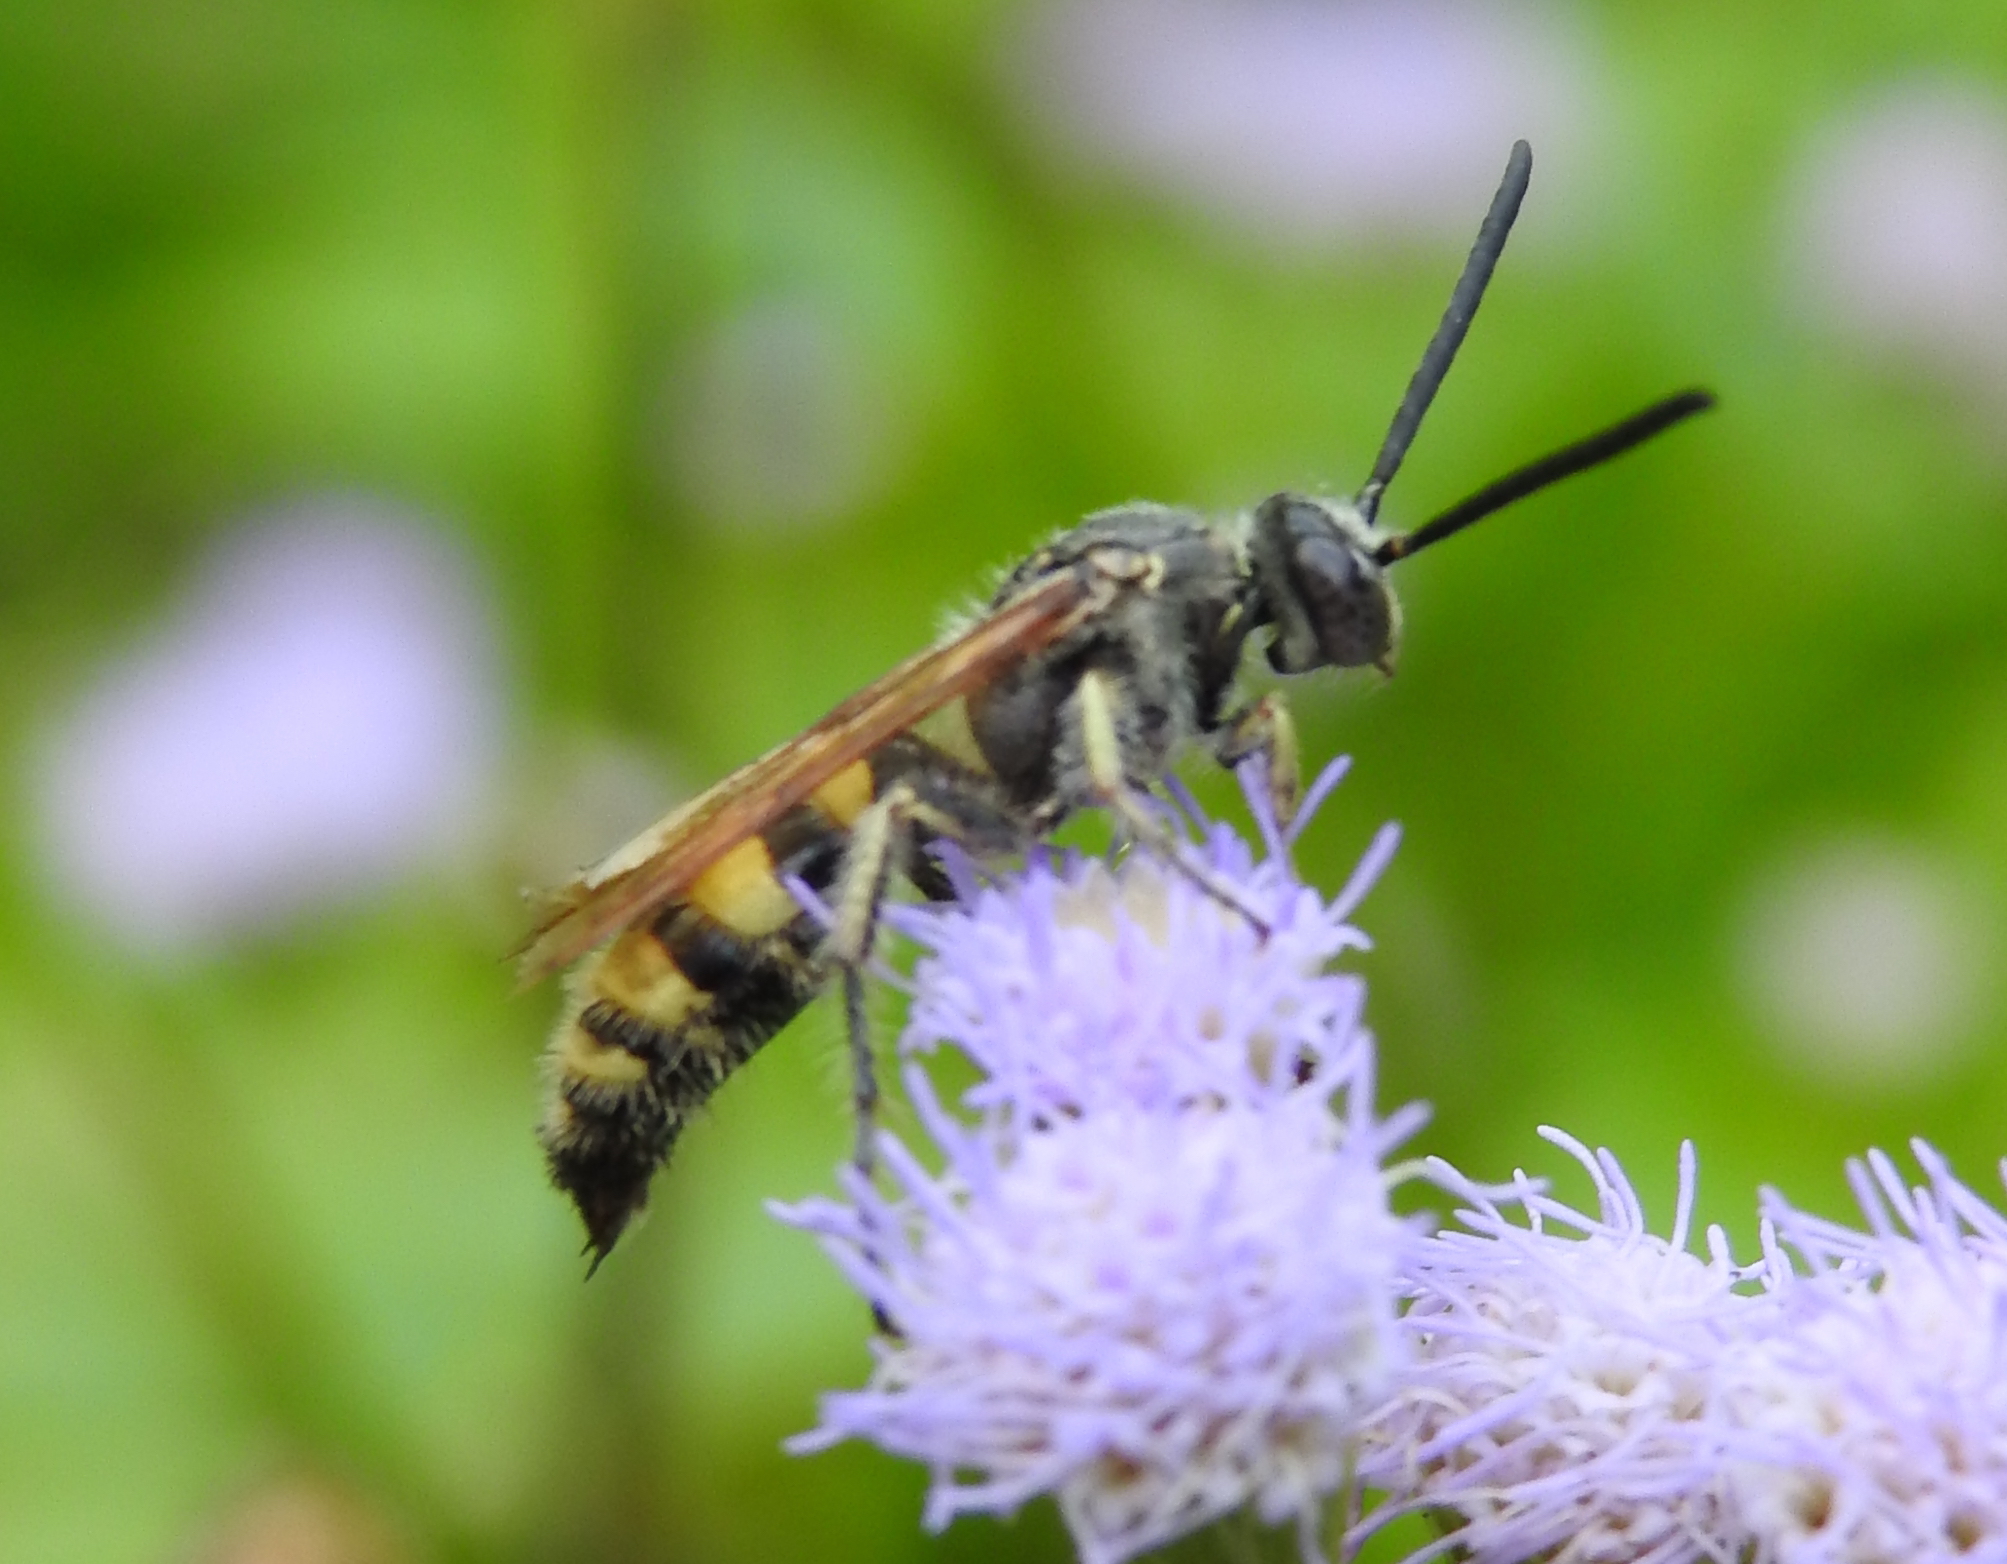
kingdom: Animalia
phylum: Arthropoda
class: Insecta
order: Hymenoptera
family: Scoliidae
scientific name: Scoliidae
